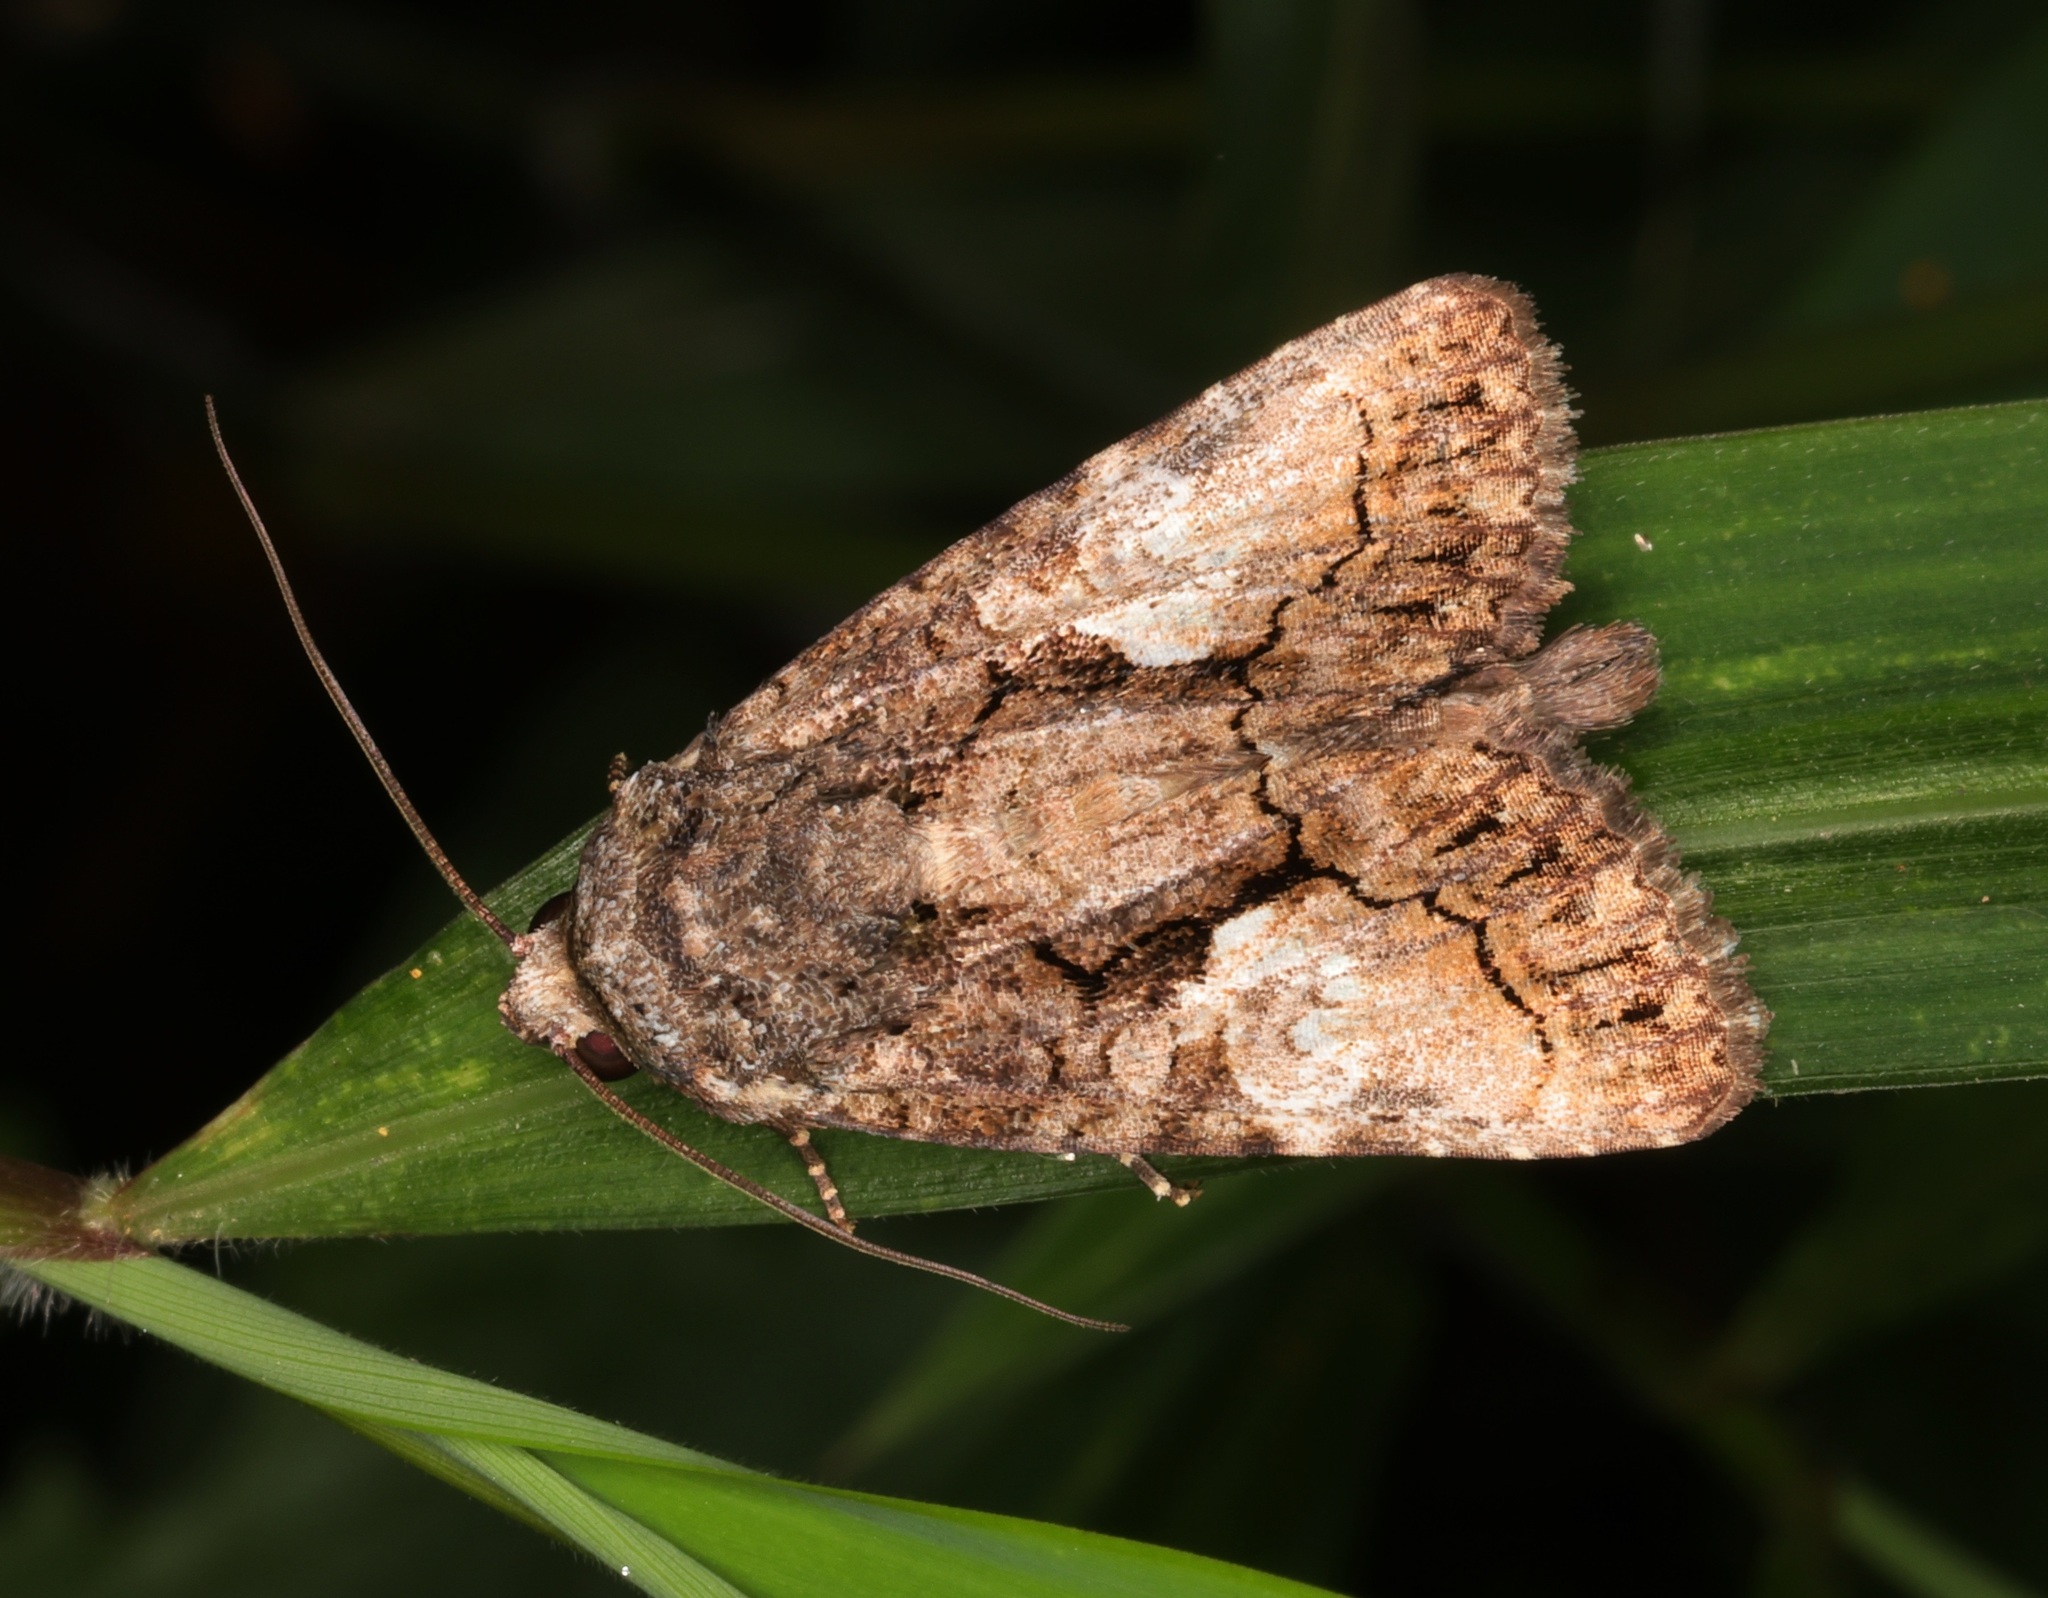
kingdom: Animalia
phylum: Arthropoda
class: Insecta
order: Lepidoptera
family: Noctuidae
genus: Aedia
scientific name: Aedia leucomelas
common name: Sorcerer
